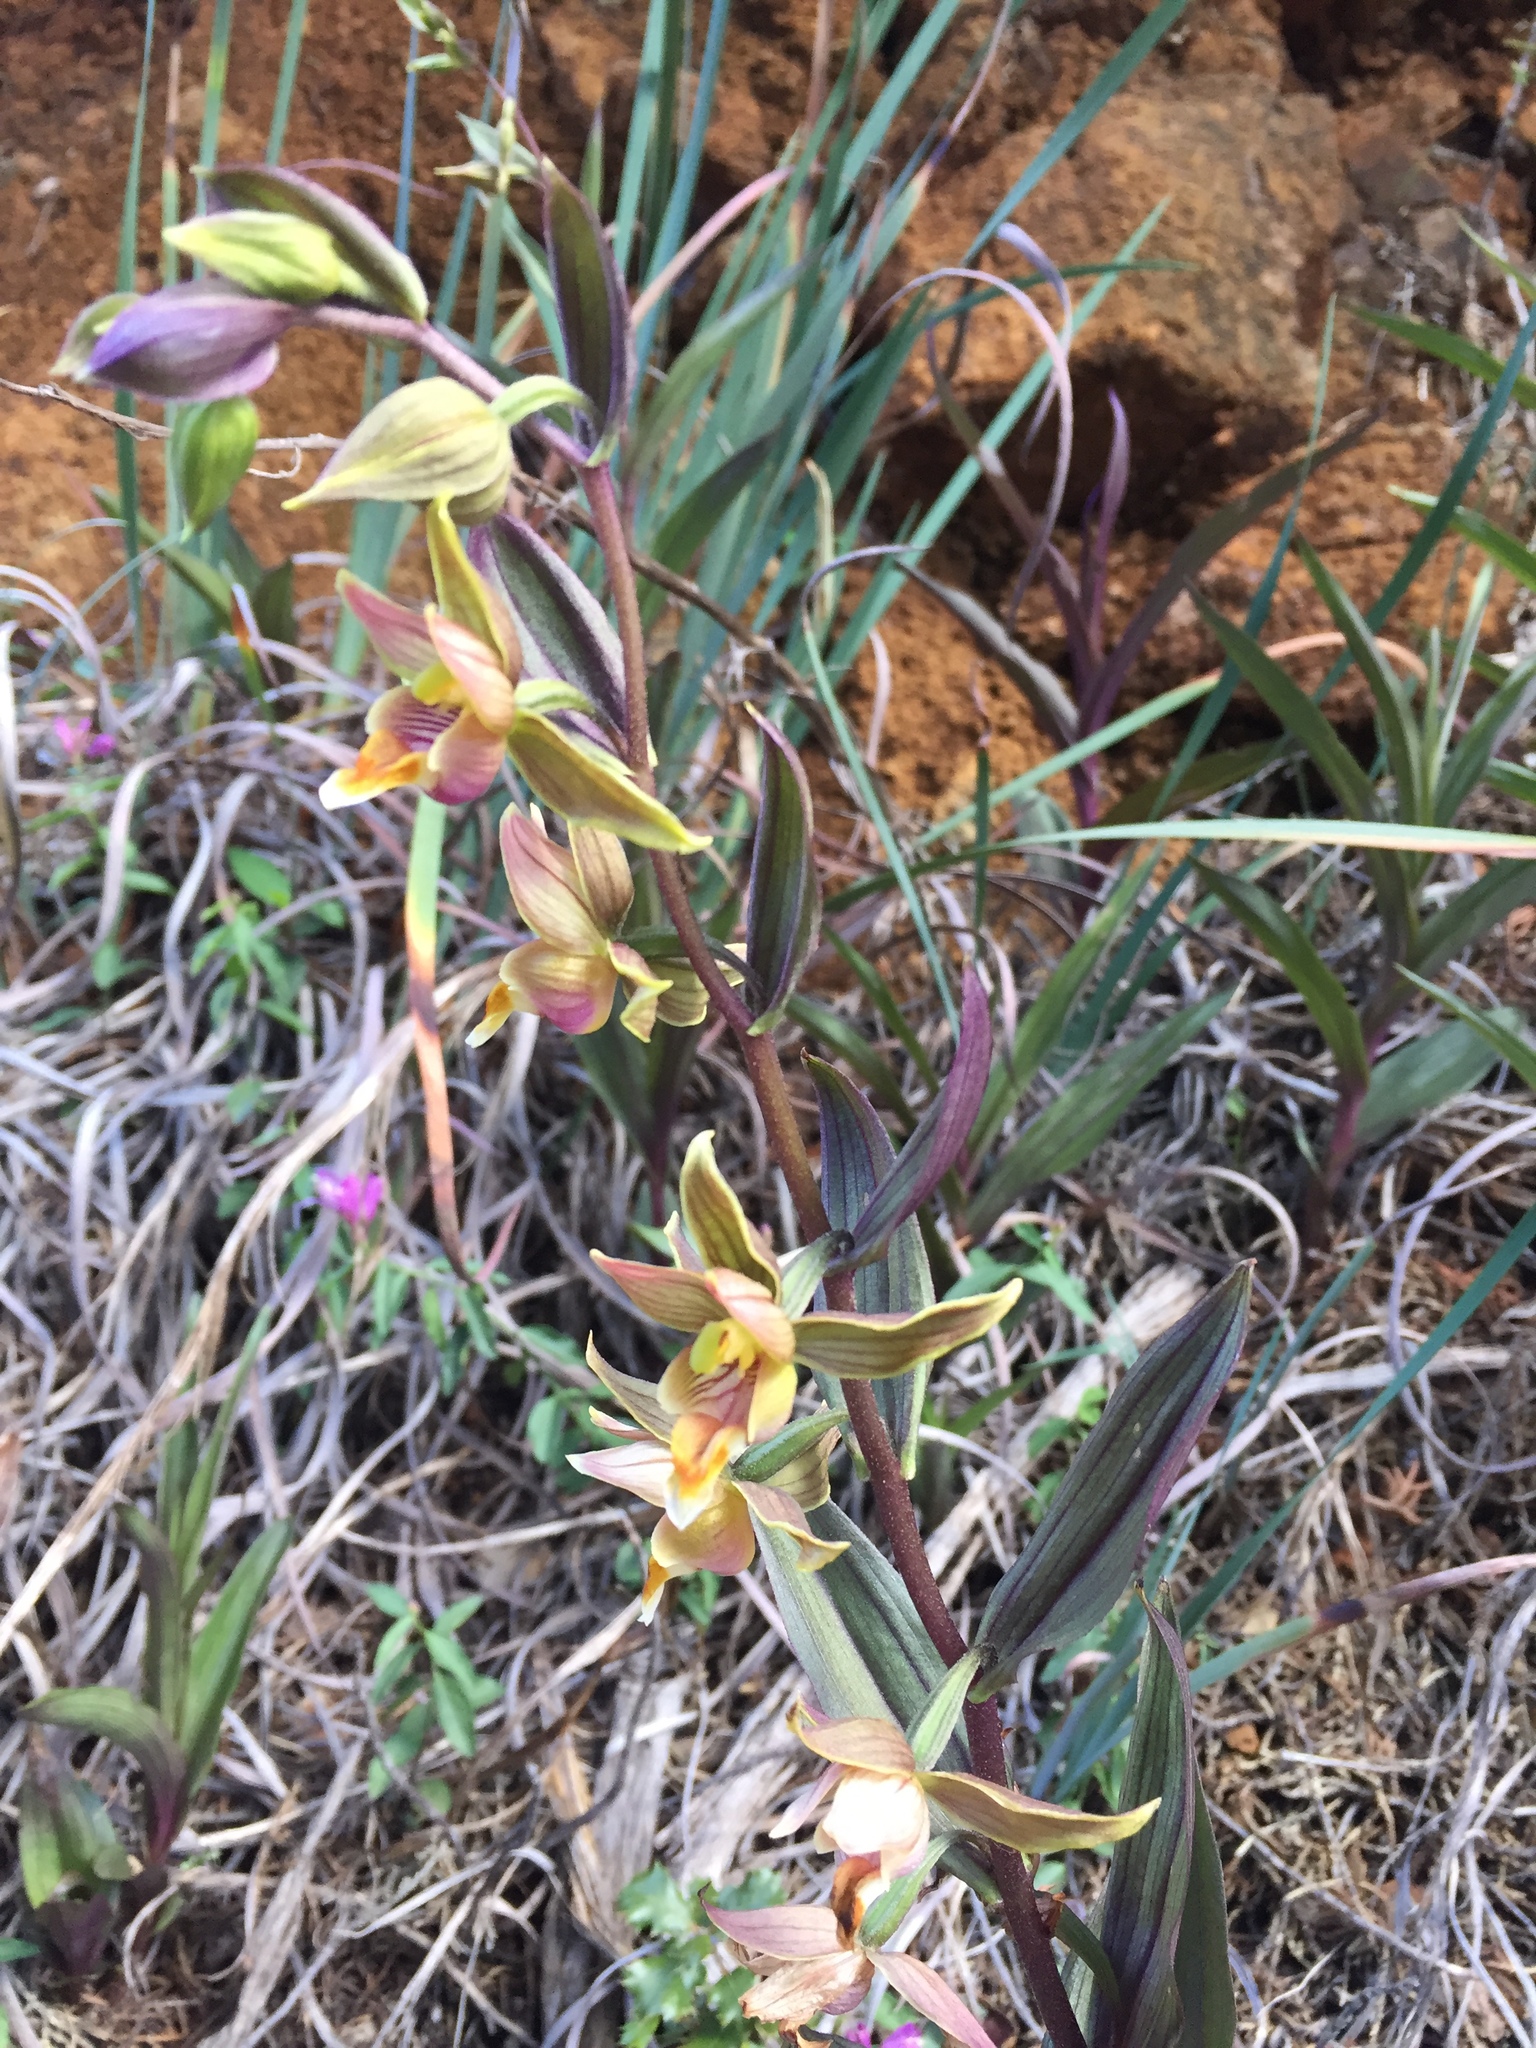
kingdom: Plantae
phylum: Tracheophyta
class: Liliopsida
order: Asparagales
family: Orchidaceae
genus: Epipactis
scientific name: Epipactis gigantea
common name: Chatterbox
